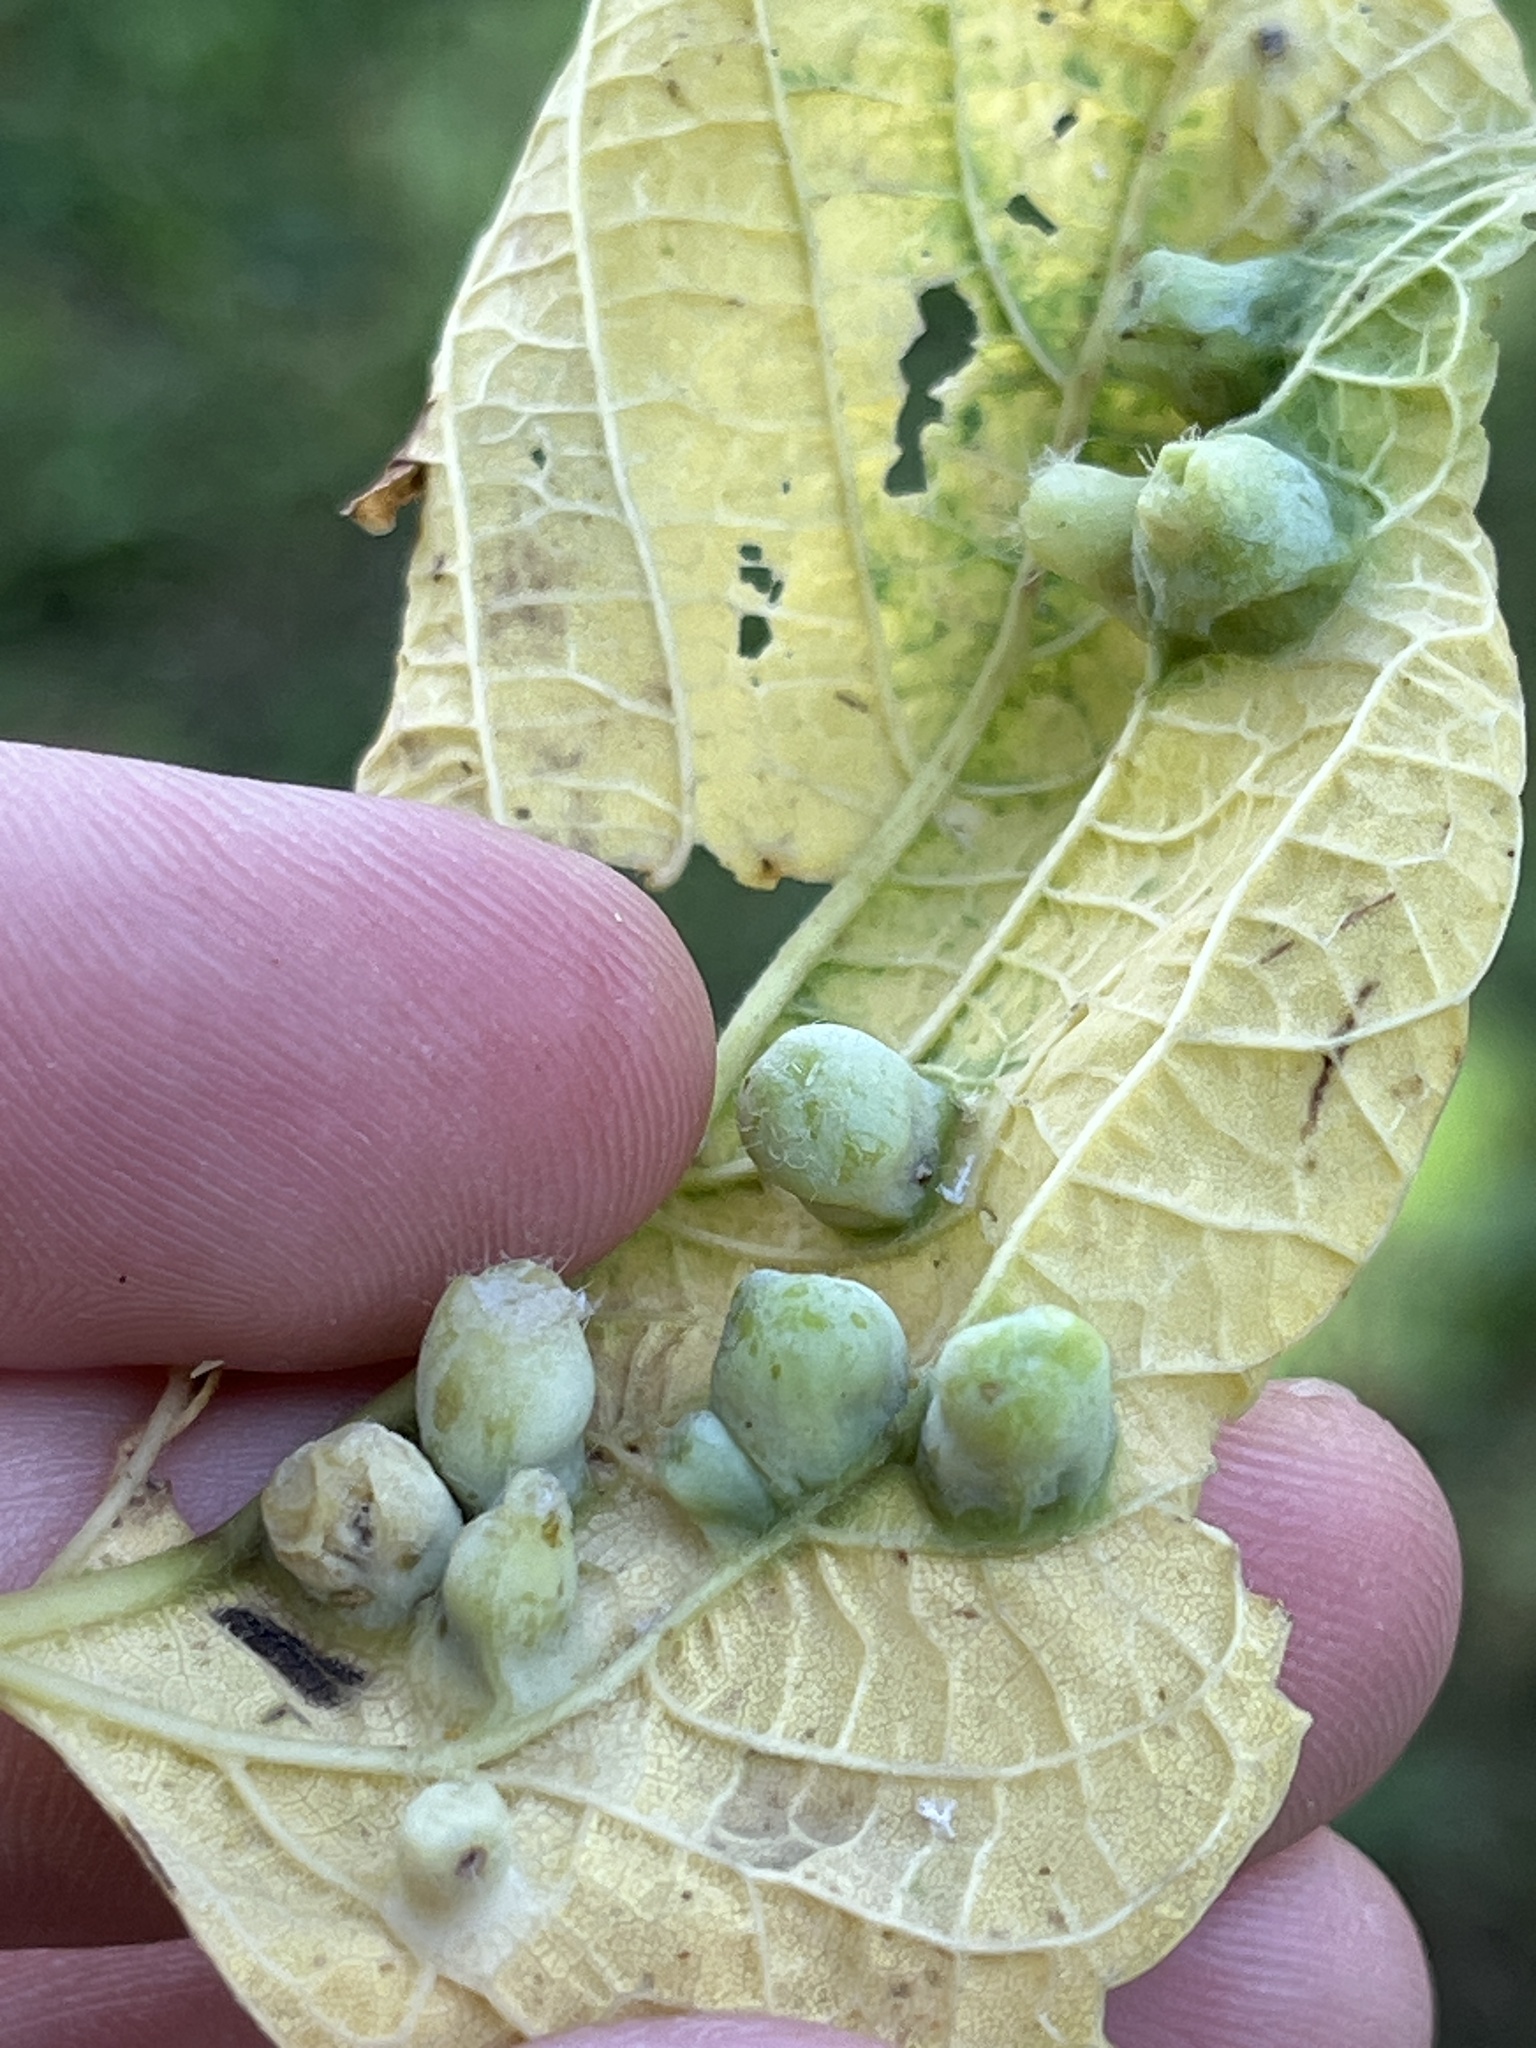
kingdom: Animalia
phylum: Arthropoda
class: Insecta
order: Hemiptera
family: Aphalaridae
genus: Pachypsylla
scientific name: Pachypsylla celtidismamma
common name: Hackberry nipplegall psyllid
